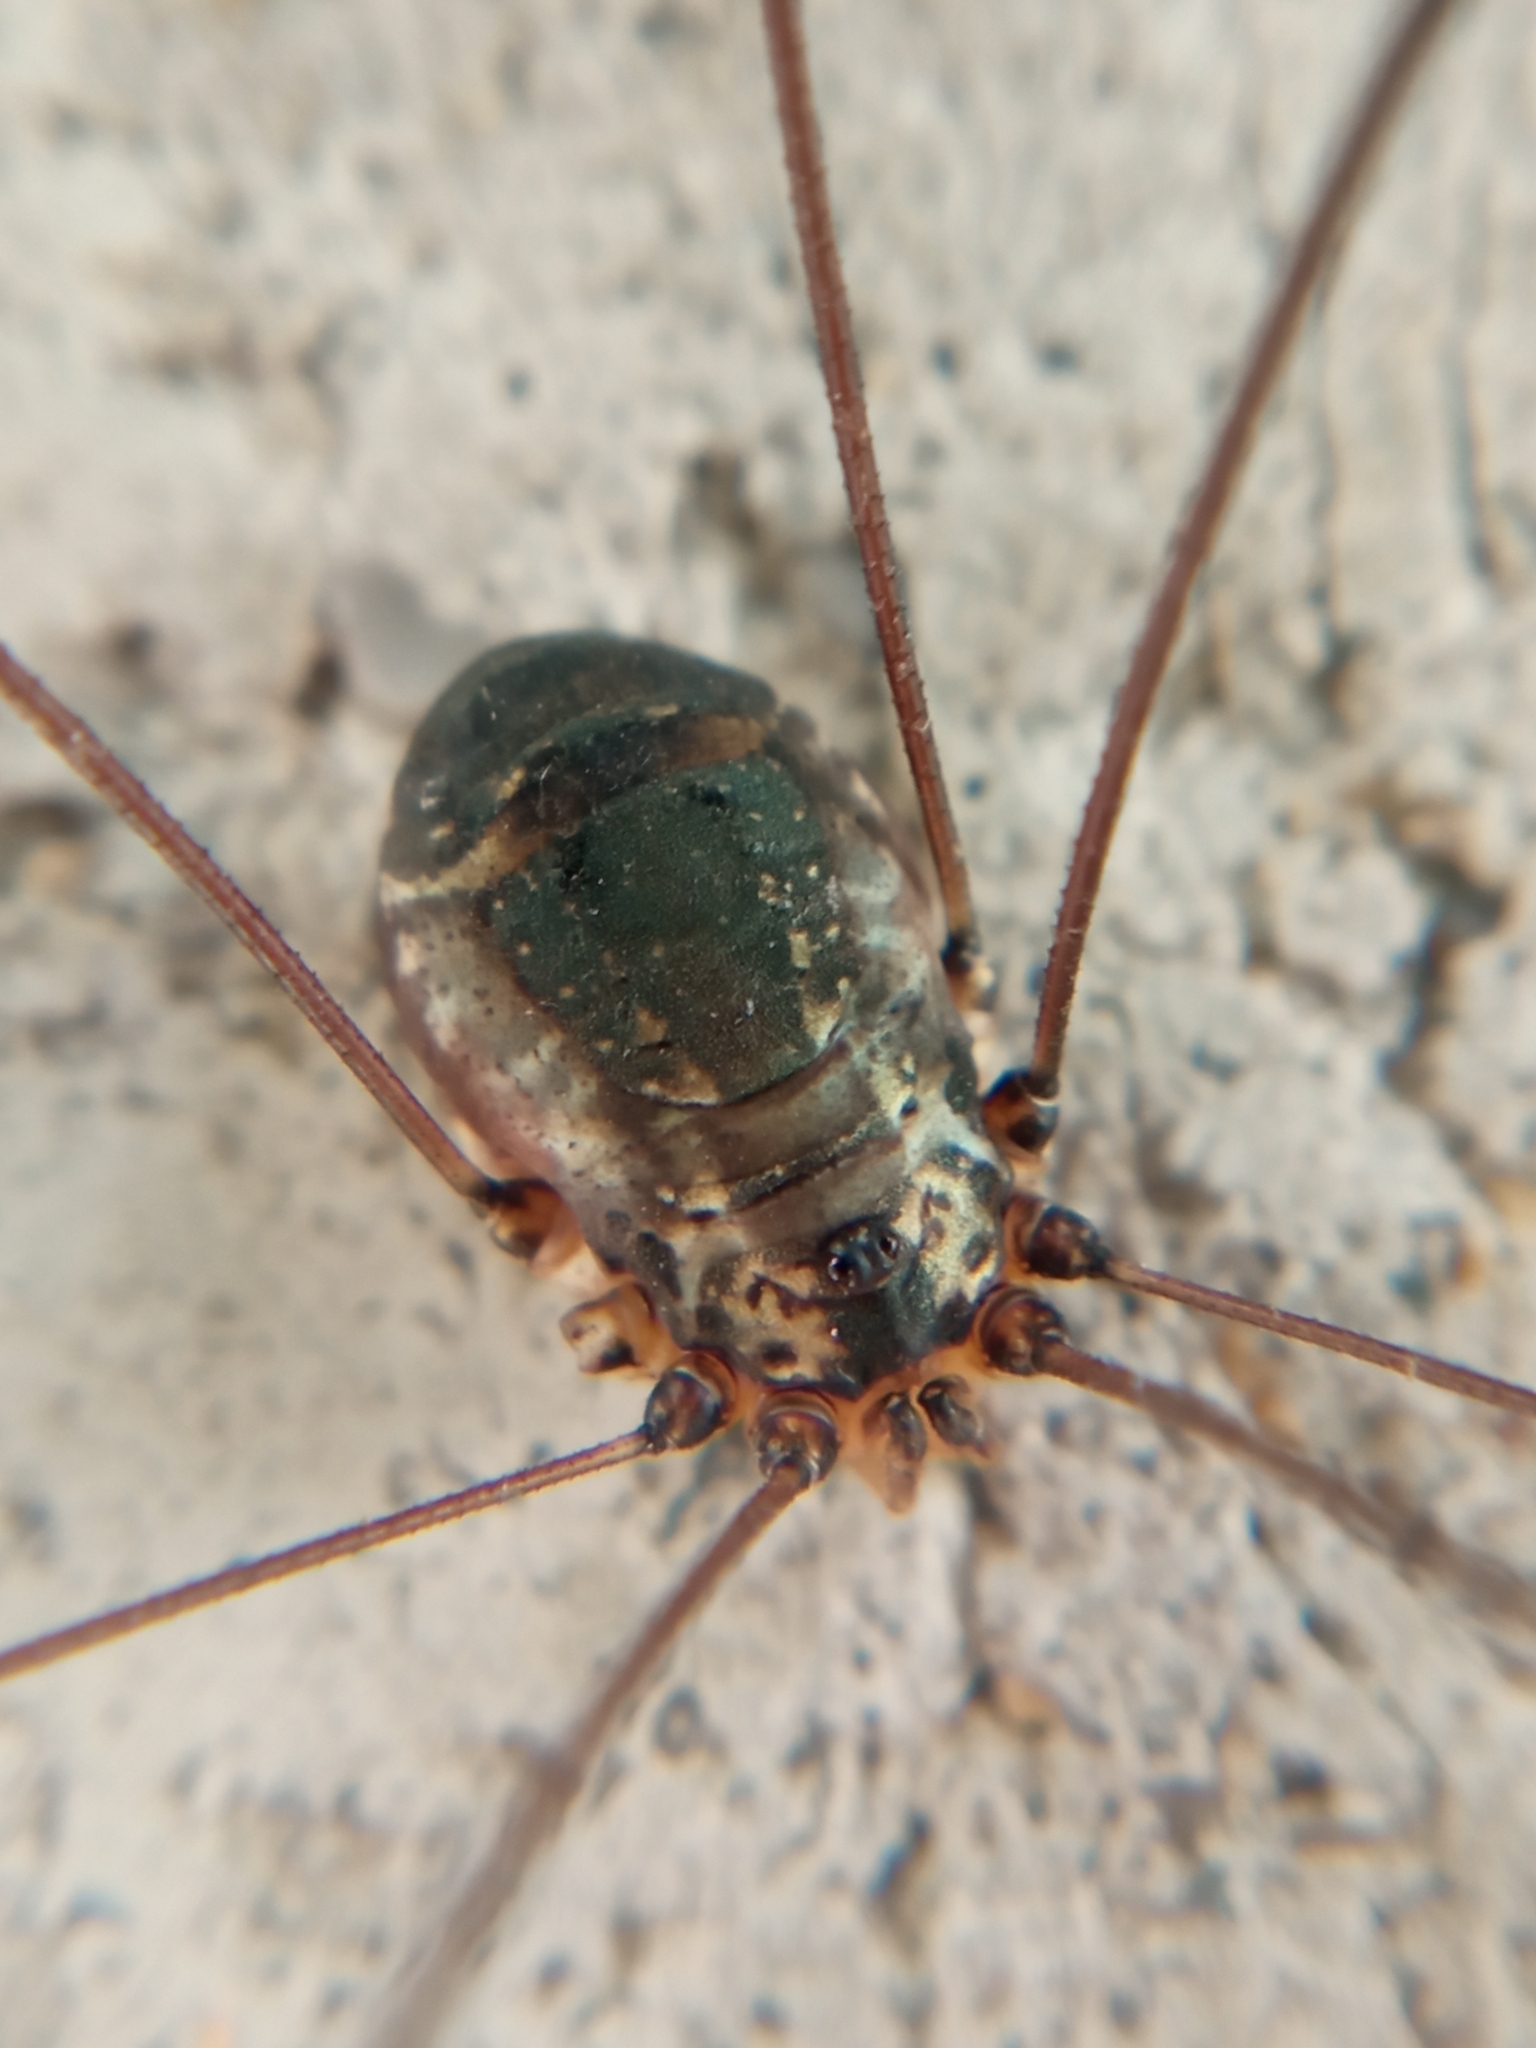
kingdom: Animalia
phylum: Arthropoda
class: Arachnida
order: Opiliones
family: Sclerosomatidae
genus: Leiobunum
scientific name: Leiobunum
